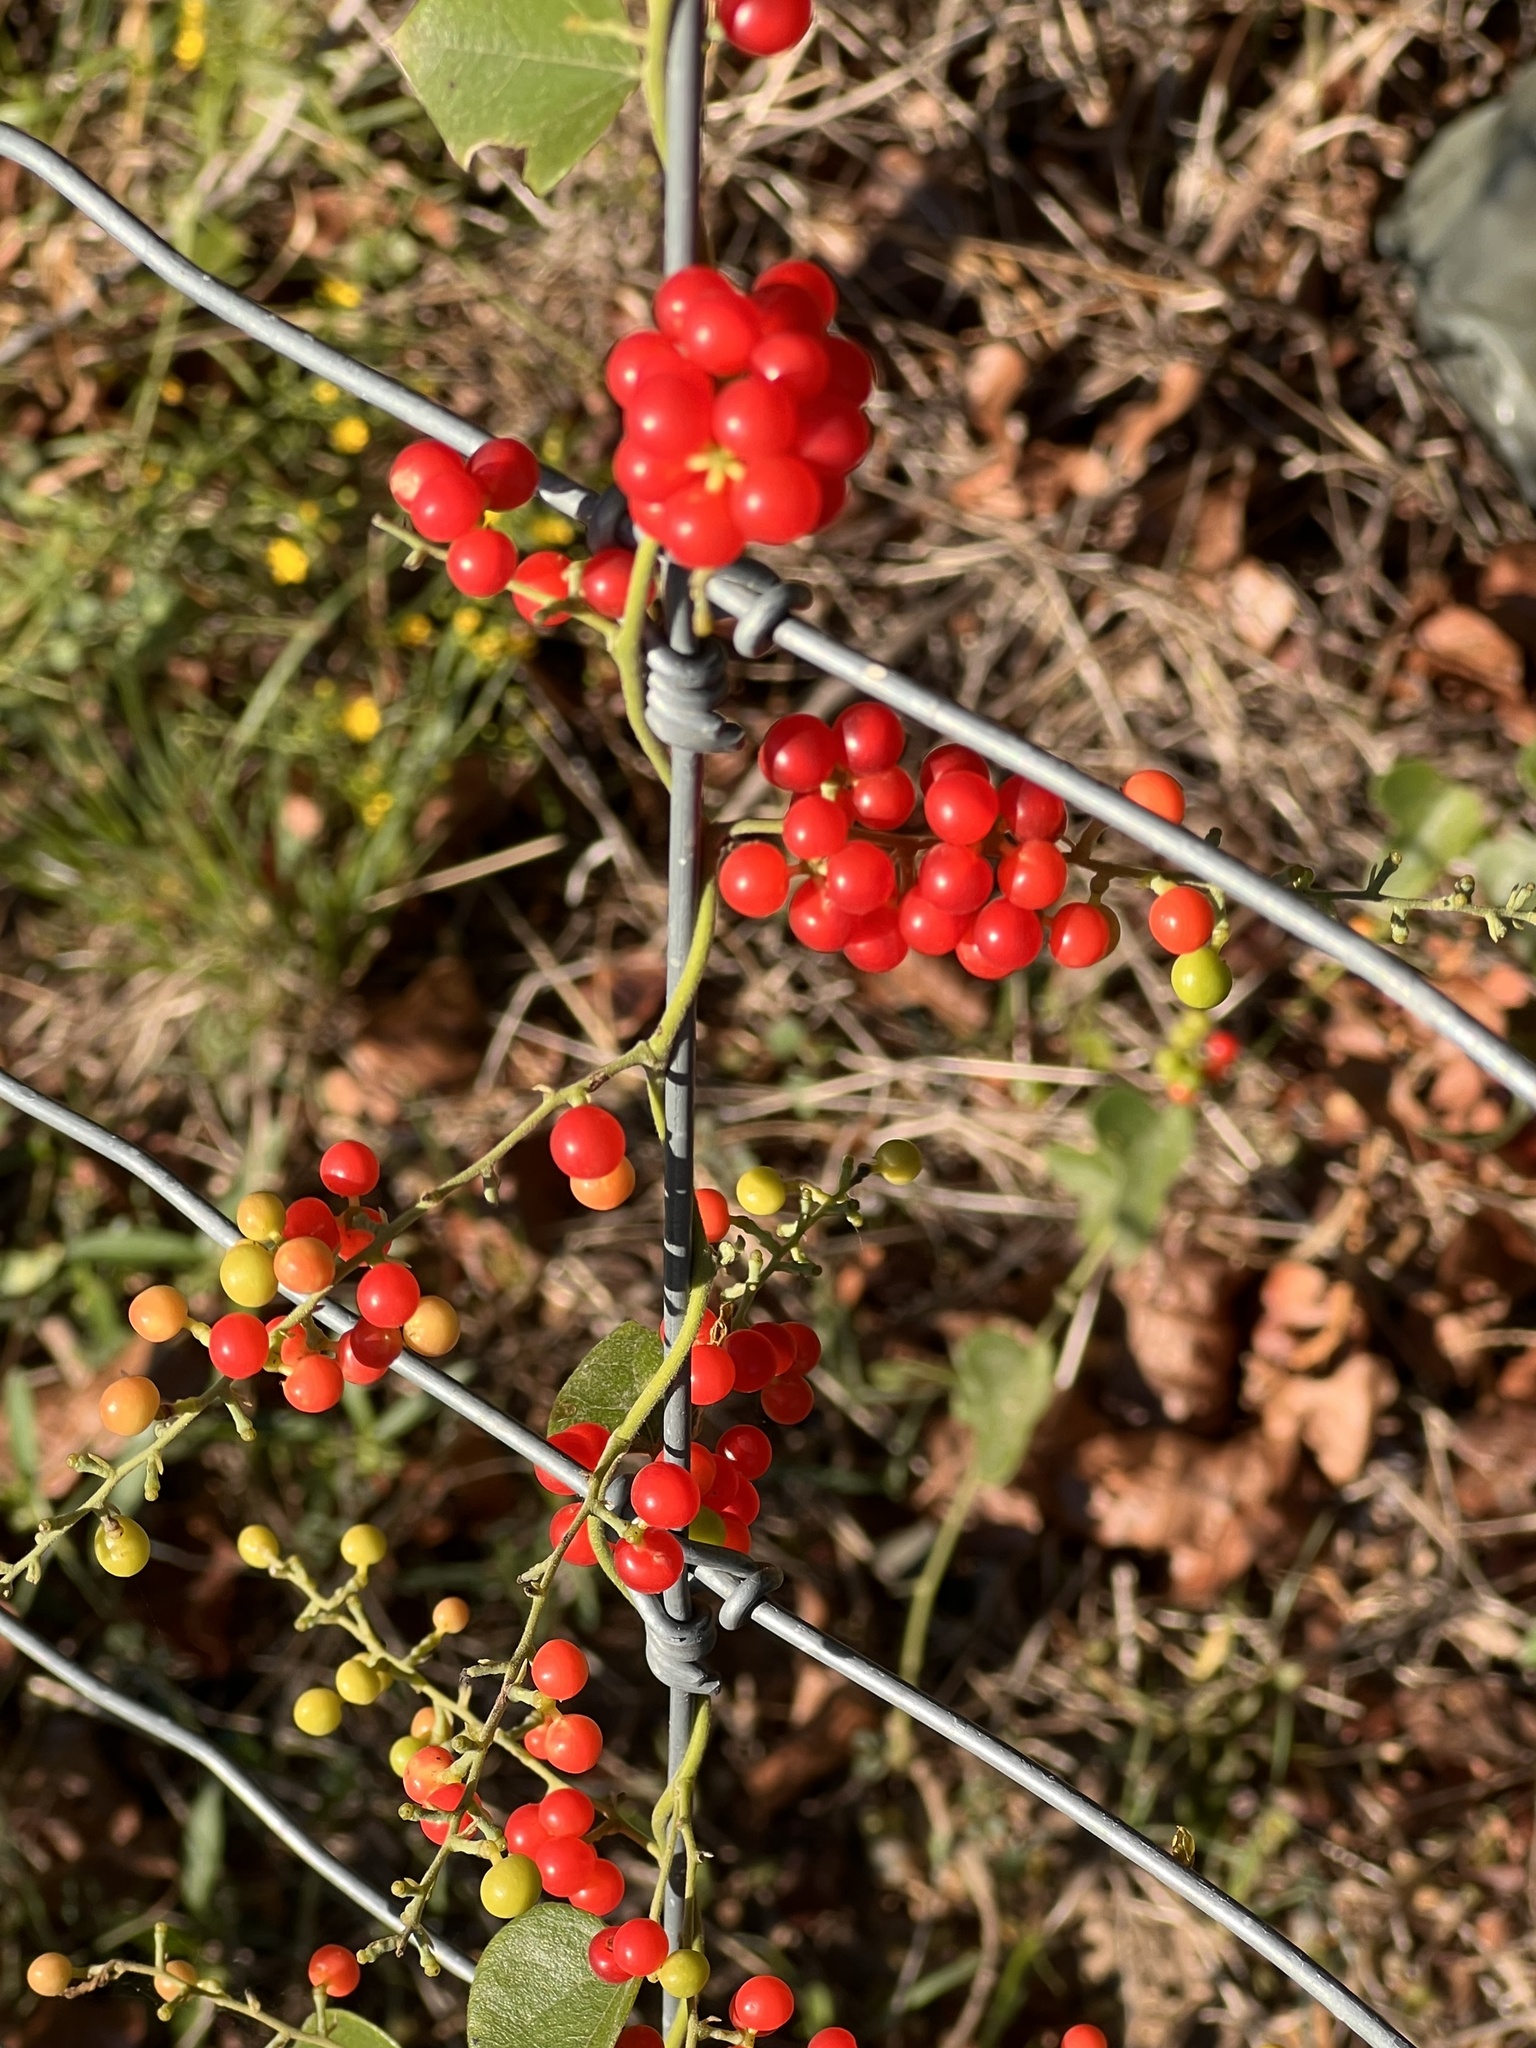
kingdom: Plantae
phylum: Tracheophyta
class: Magnoliopsida
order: Ranunculales
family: Menispermaceae
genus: Cocculus
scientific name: Cocculus carolinus
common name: Carolina moonseed
